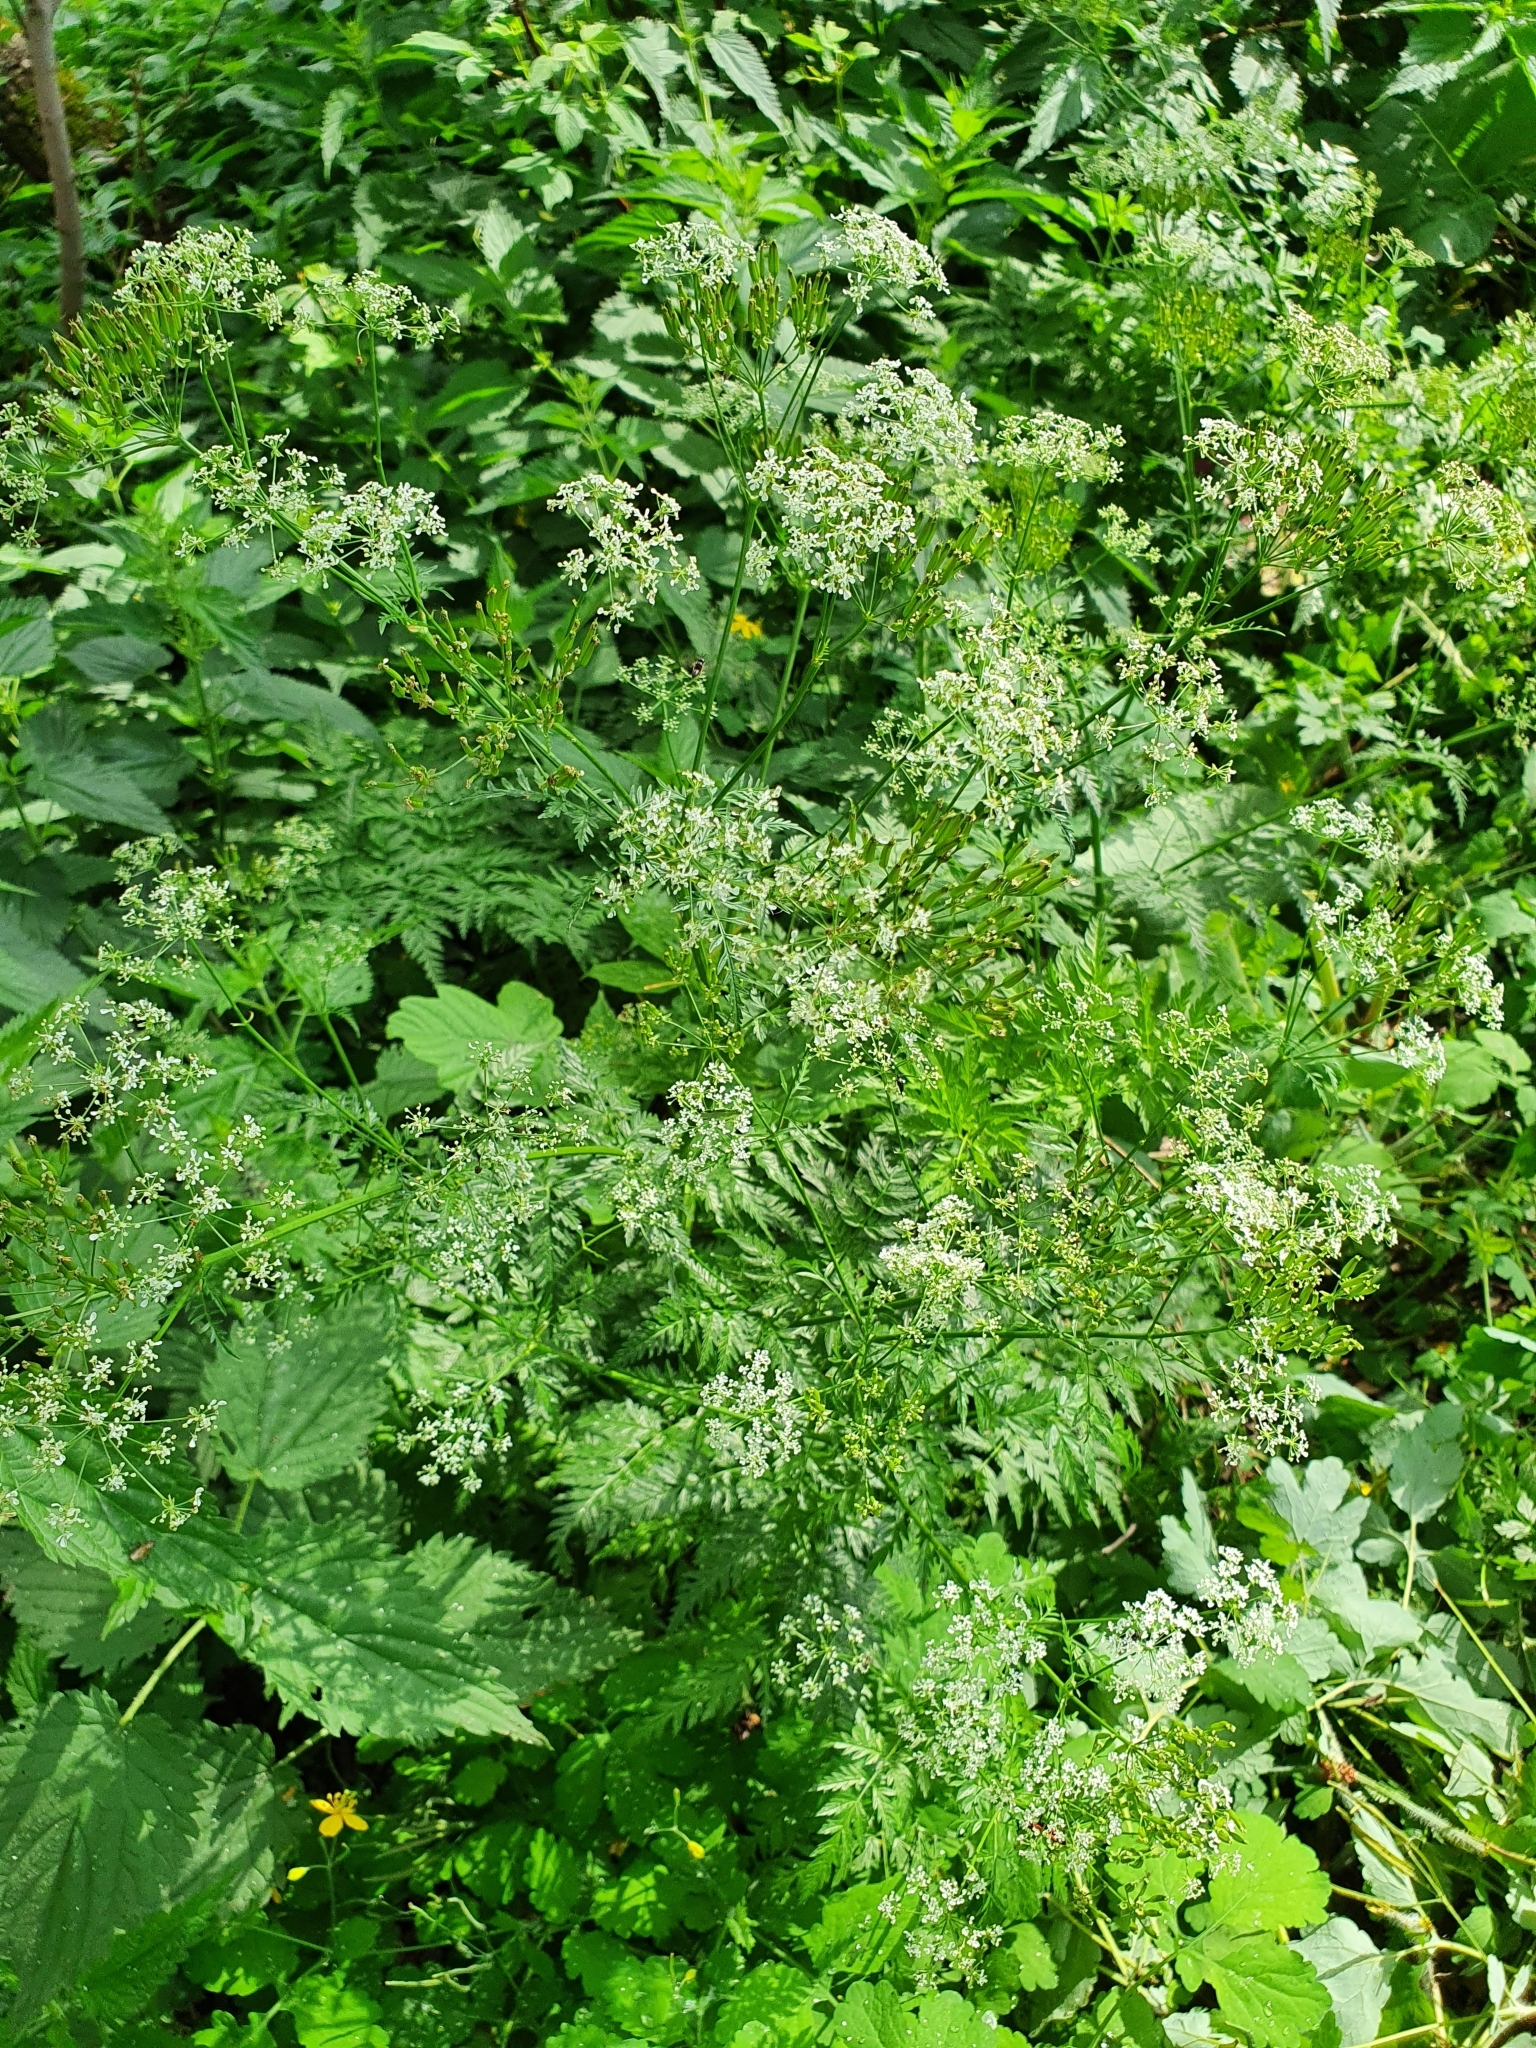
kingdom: Plantae
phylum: Tracheophyta
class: Magnoliopsida
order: Apiales
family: Apiaceae
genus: Anthriscus
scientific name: Anthriscus sylvestris
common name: Cow parsley
